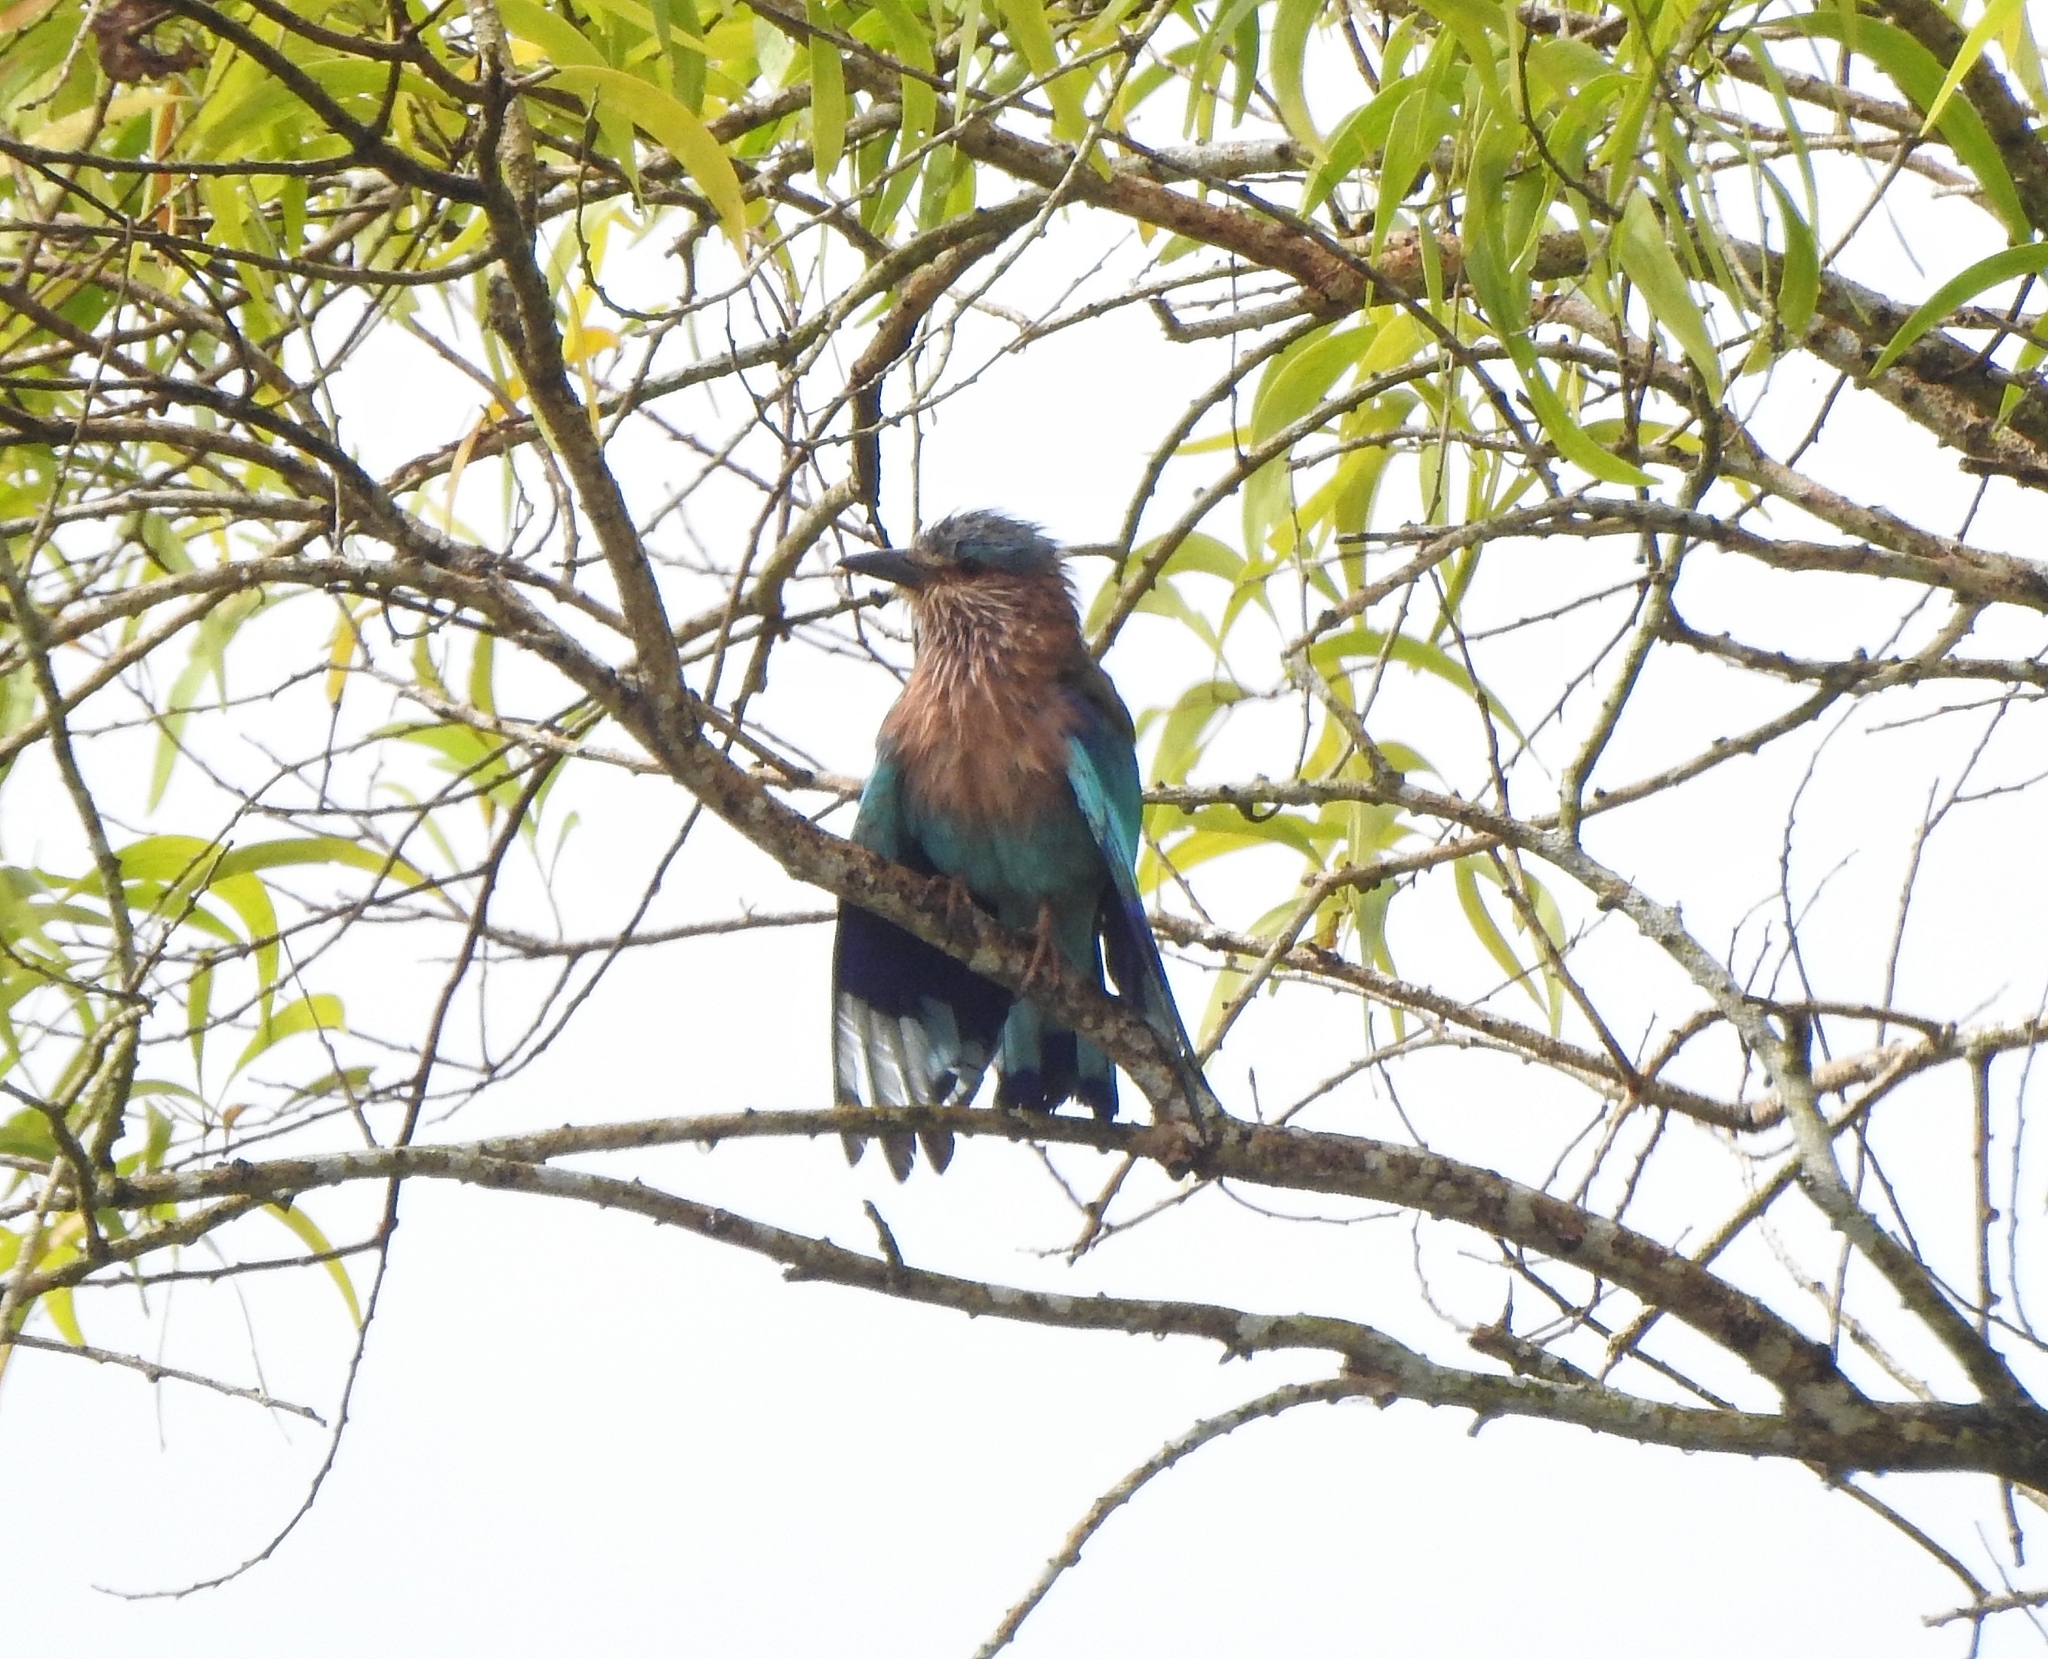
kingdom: Animalia
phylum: Chordata
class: Aves
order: Coraciiformes
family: Coraciidae
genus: Coracias
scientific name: Coracias benghalensis
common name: Indian roller
